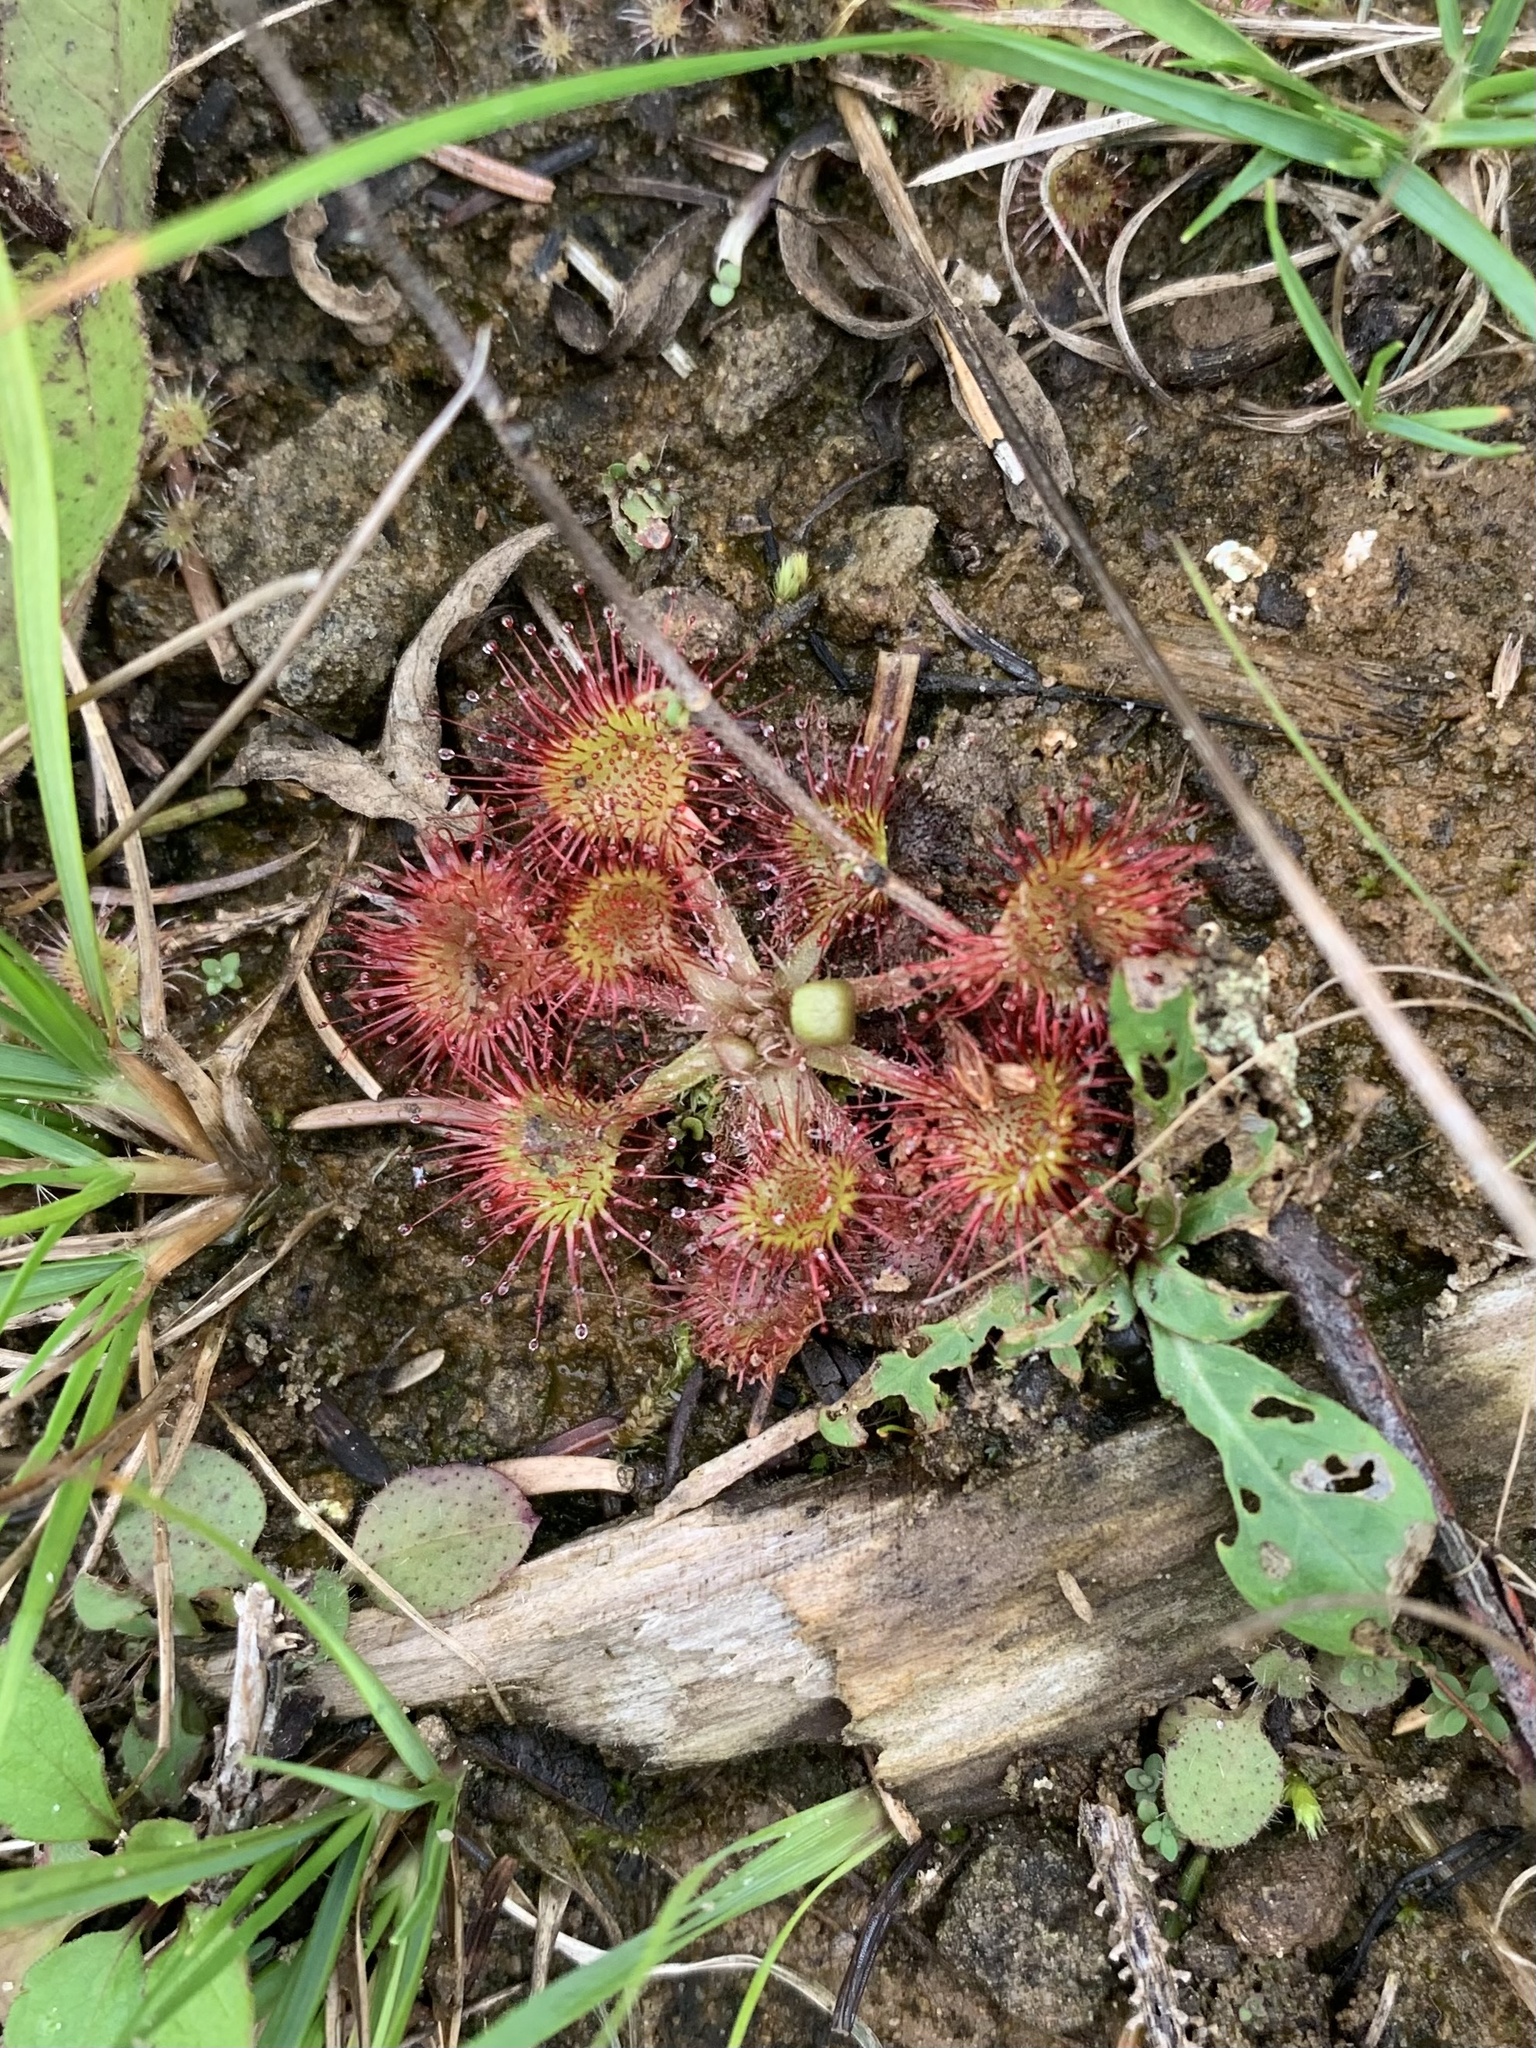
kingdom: Plantae
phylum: Tracheophyta
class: Magnoliopsida
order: Caryophyllales
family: Droseraceae
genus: Drosera
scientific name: Drosera rotundifolia
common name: Round-leaved sundew
